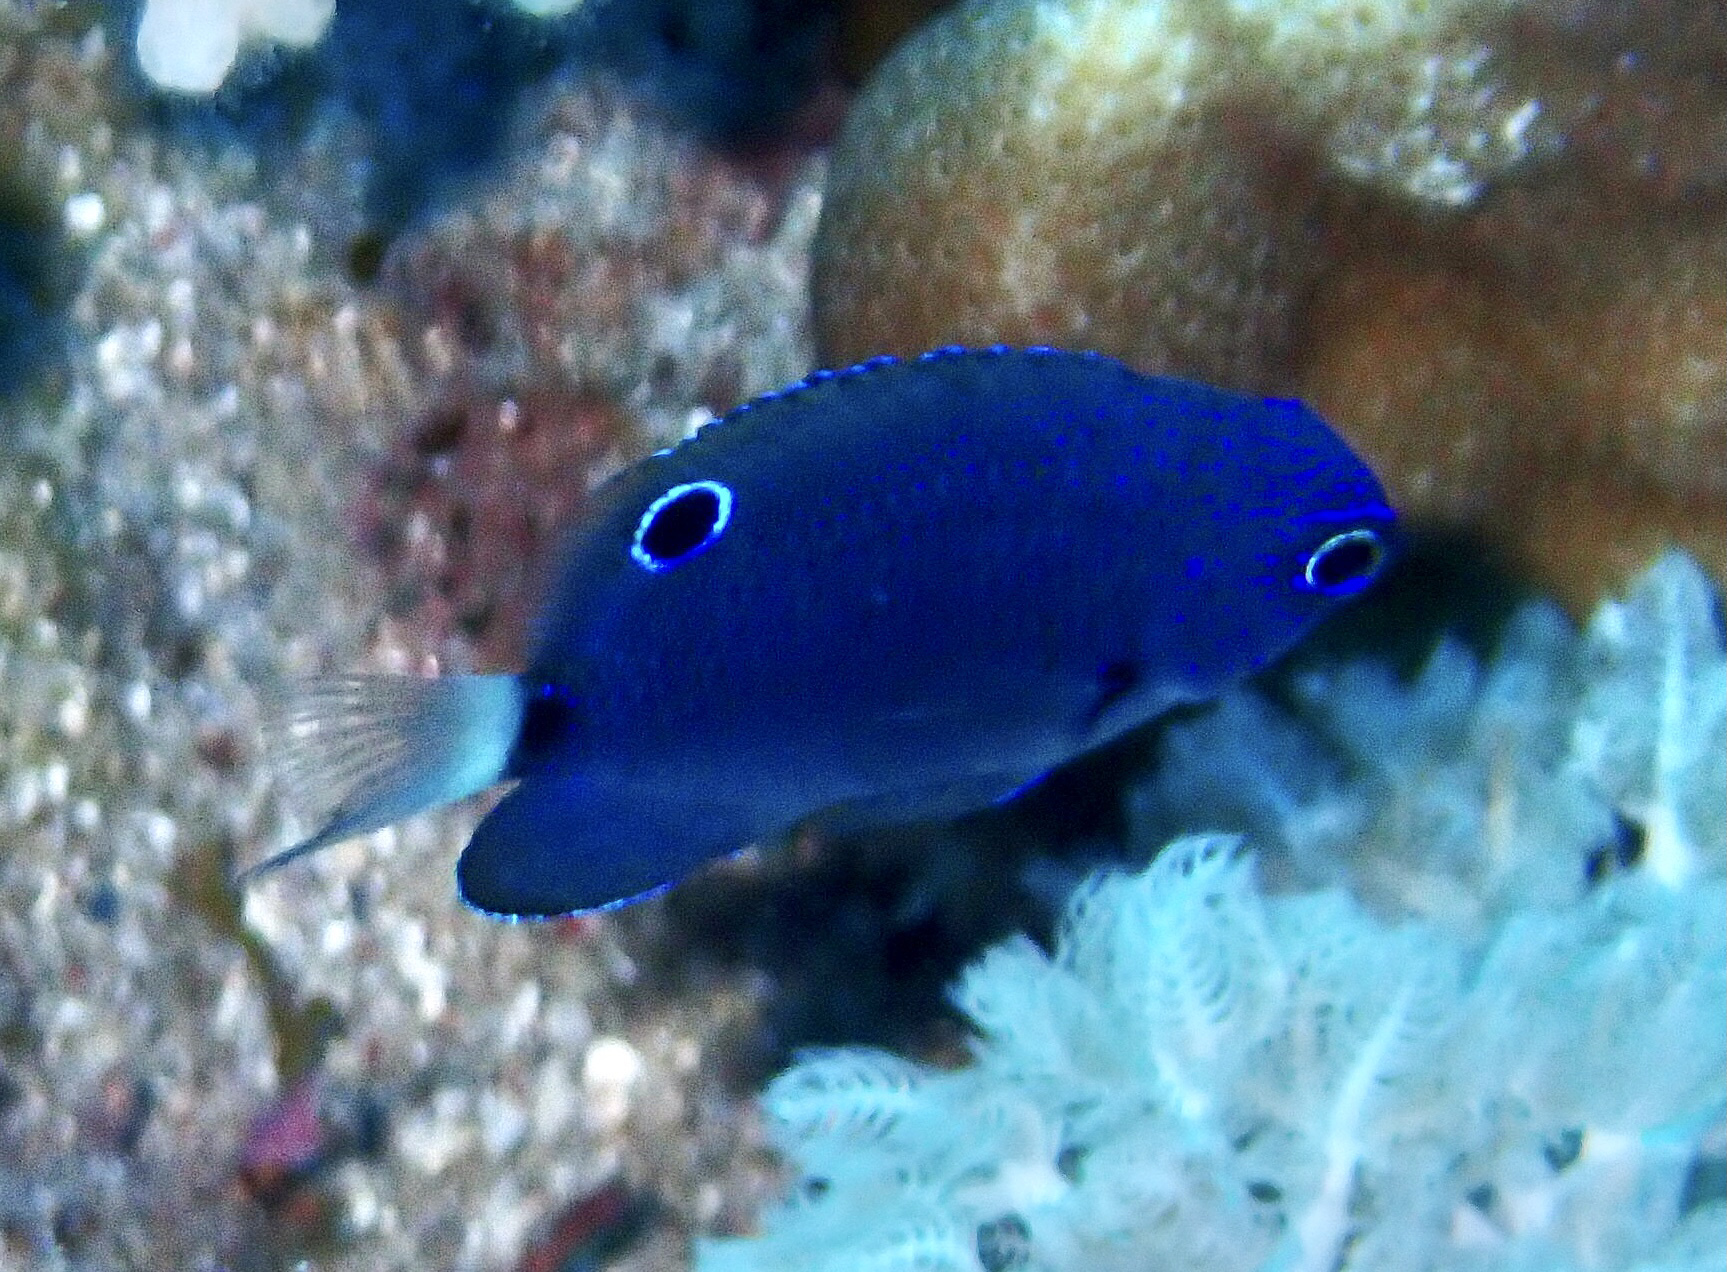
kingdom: Animalia
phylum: Chordata
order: Perciformes
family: Pomacentridae
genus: Pomacentrus
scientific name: Pomacentrus trichrourus
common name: Paletail damsel
